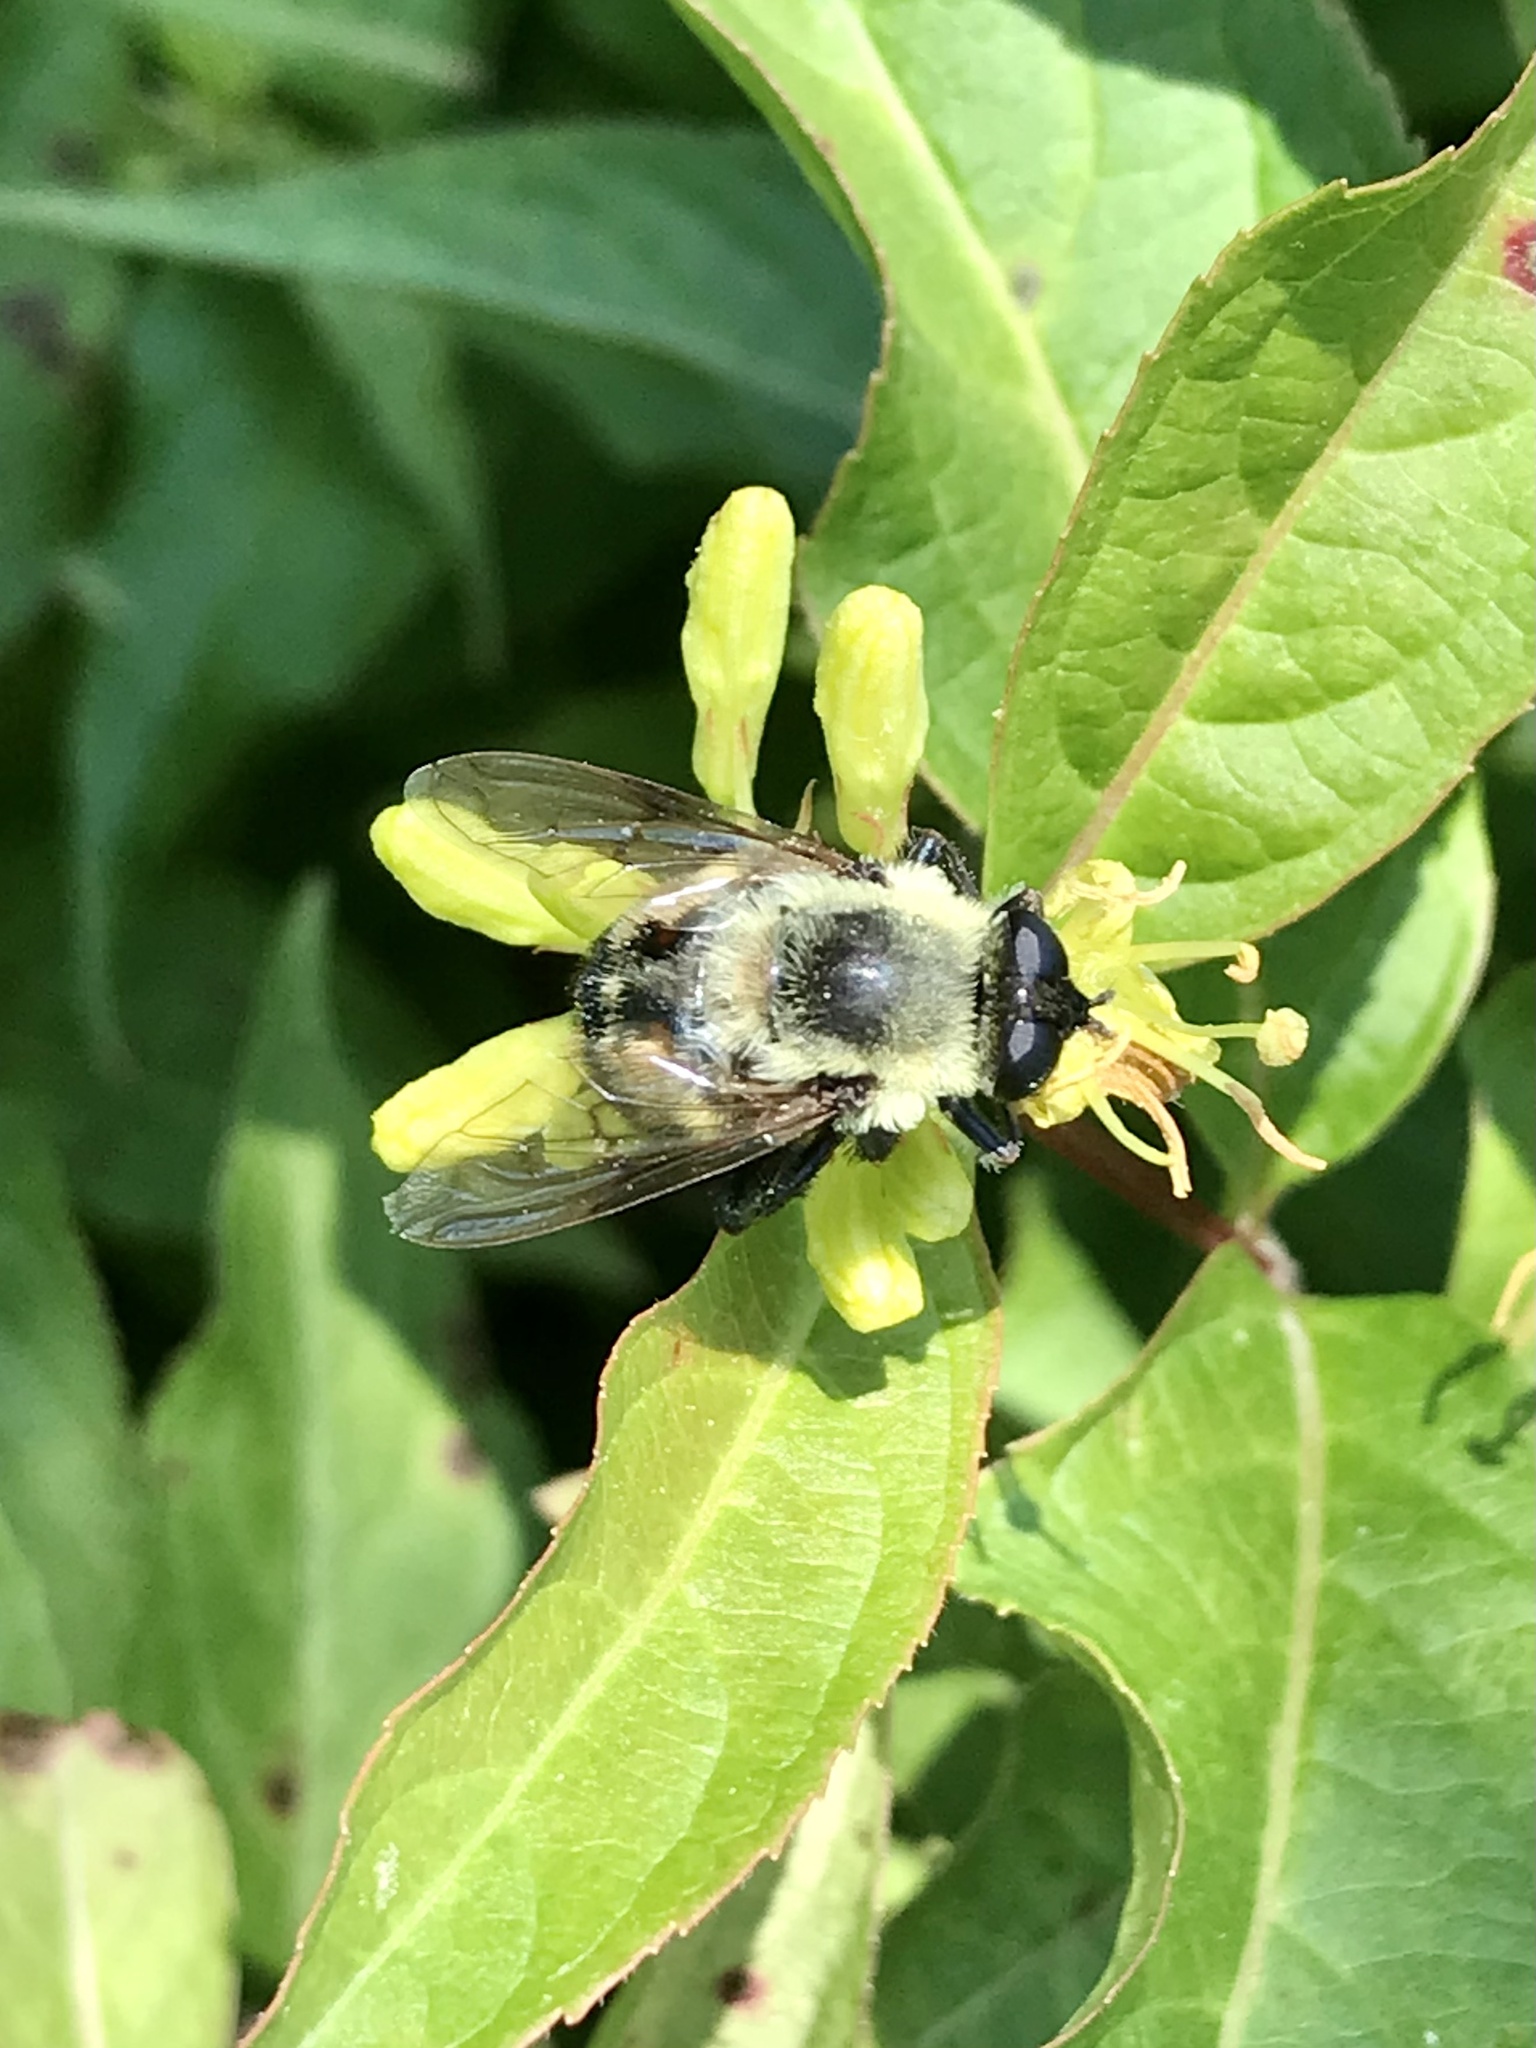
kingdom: Animalia
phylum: Arthropoda
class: Insecta
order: Diptera
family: Syrphidae
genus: Imatisma
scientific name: Imatisma posticata
